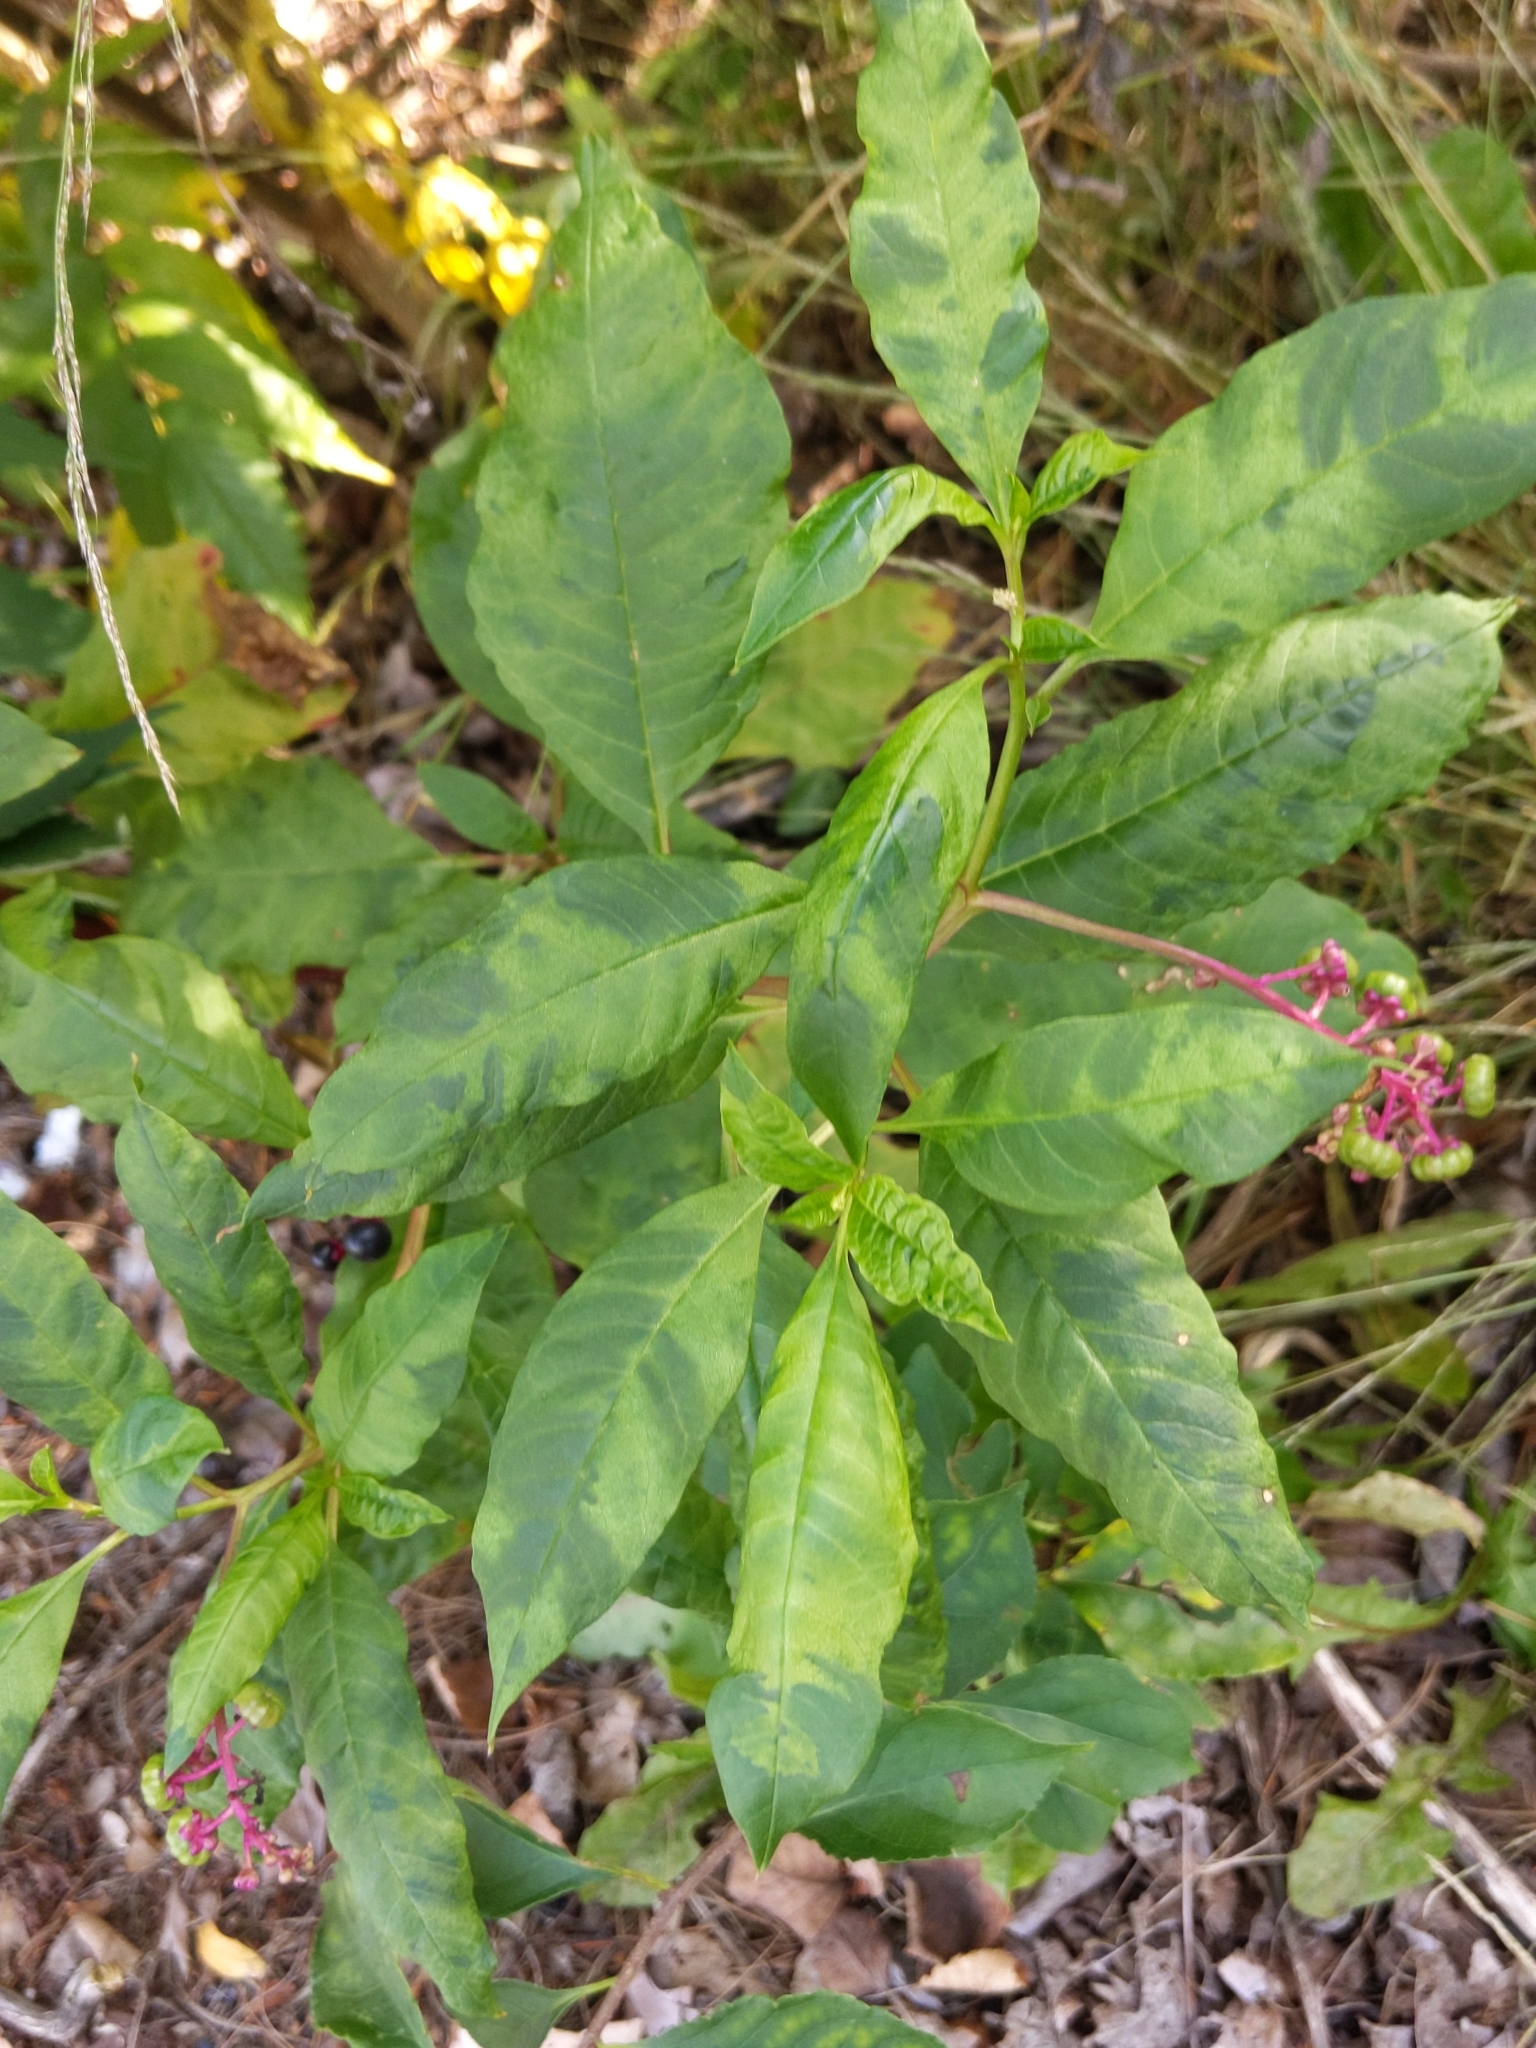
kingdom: Viruses
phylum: Pisuviricota
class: Stelpaviricetes
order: Patatavirales
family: Potyviridae
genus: Potyvirus
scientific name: Potyvirus Pokeweed mosaic virus
